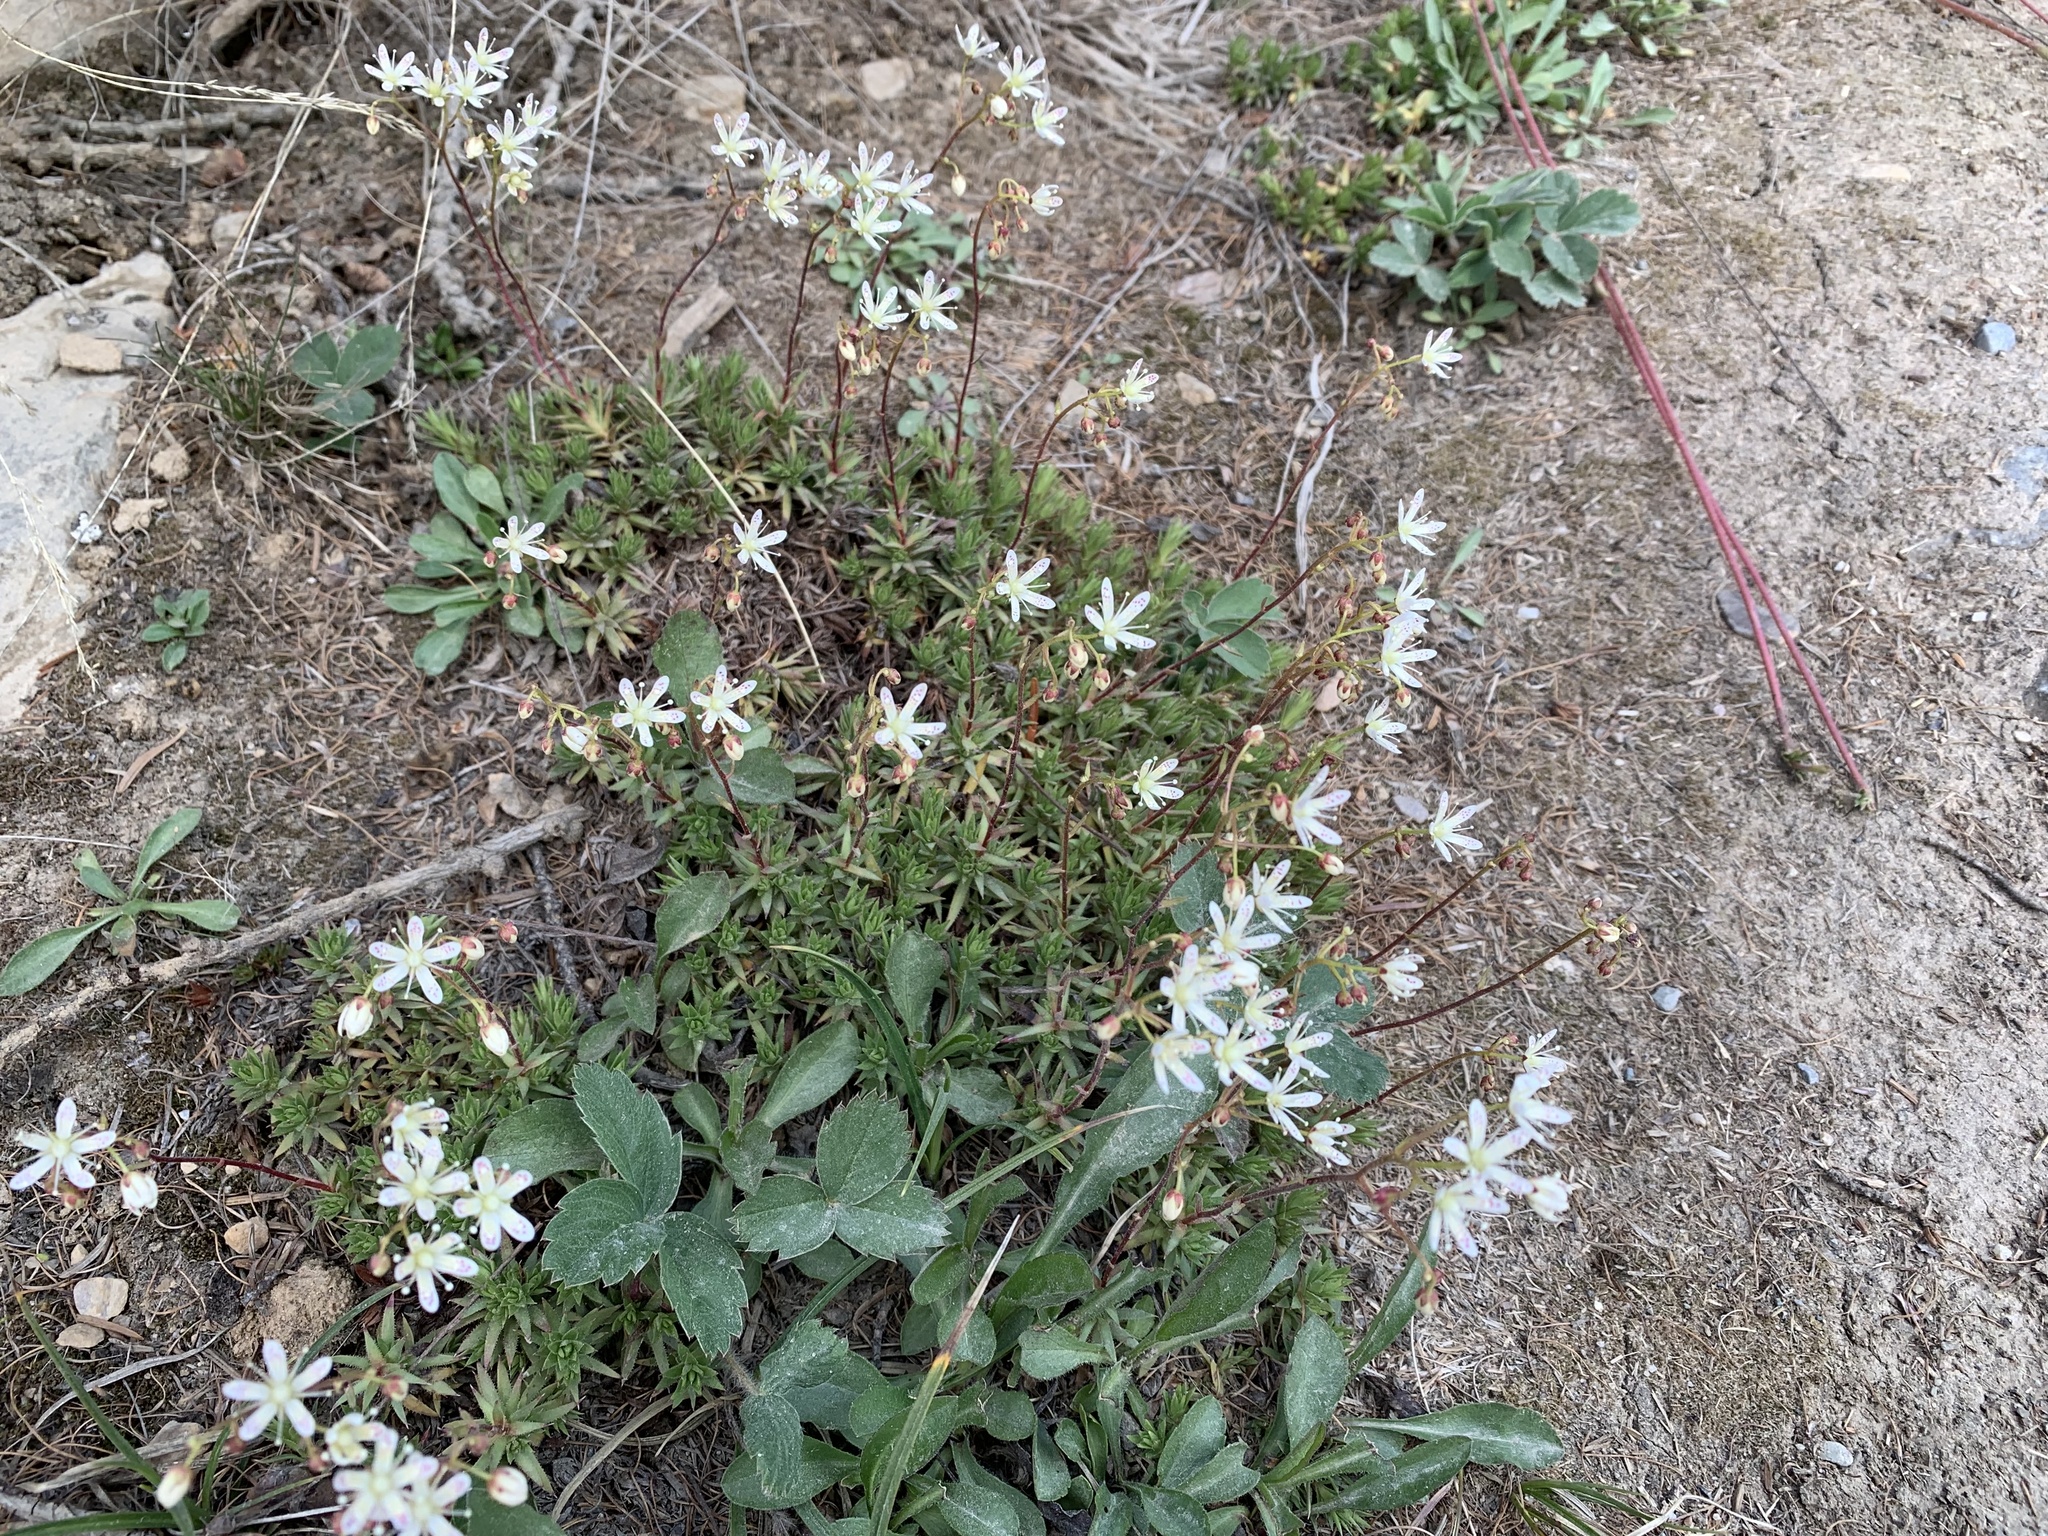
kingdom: Plantae
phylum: Tracheophyta
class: Magnoliopsida
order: Saxifragales
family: Saxifragaceae
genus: Saxifraga
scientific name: Saxifraga bronchialis
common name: Matted saxifrage
